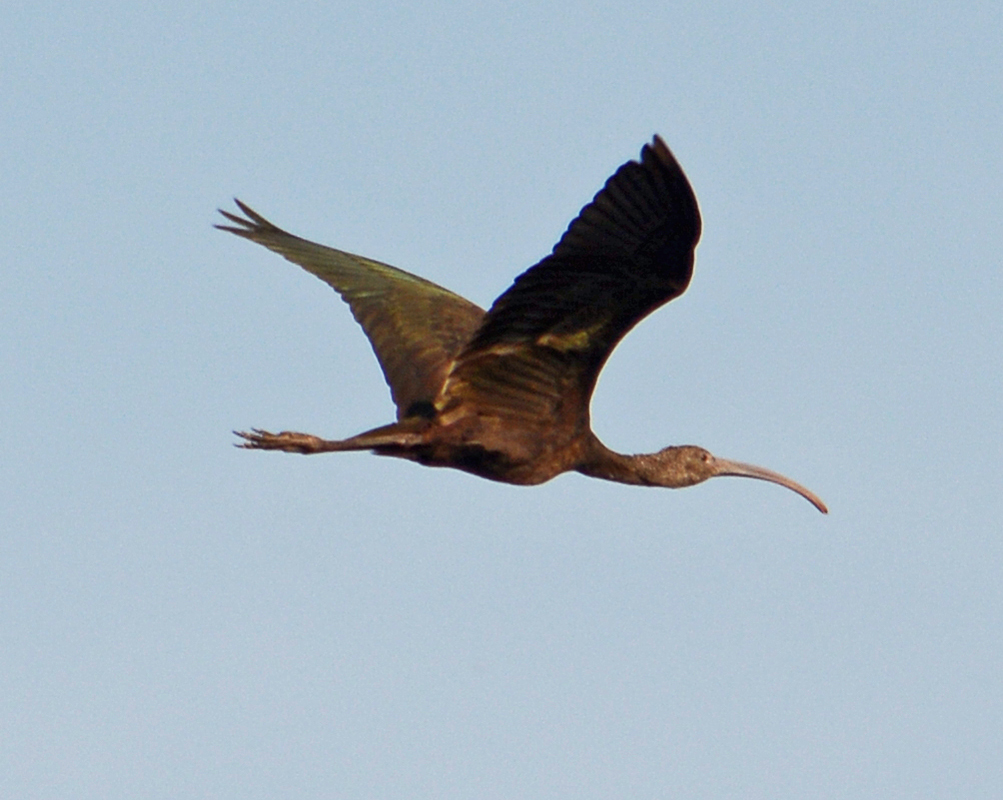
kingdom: Animalia
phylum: Chordata
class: Aves
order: Pelecaniformes
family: Threskiornithidae
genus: Plegadis
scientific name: Plegadis chihi
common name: White-faced ibis
